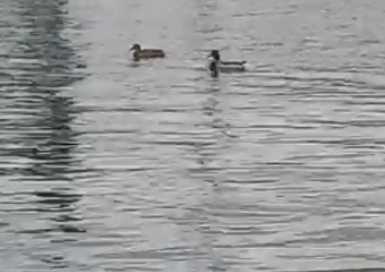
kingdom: Animalia
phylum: Chordata
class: Aves
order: Anseriformes
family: Anatidae
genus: Anas
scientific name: Anas platyrhynchos
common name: Mallard
